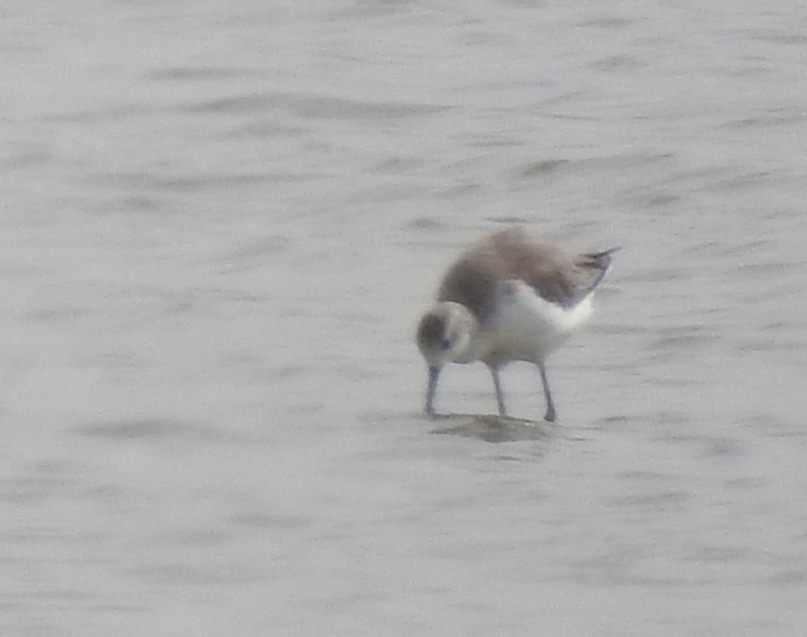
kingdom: Animalia
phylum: Chordata
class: Aves
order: Charadriiformes
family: Scolopacidae
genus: Tringa
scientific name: Tringa stagnatilis
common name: Marsh sandpiper
